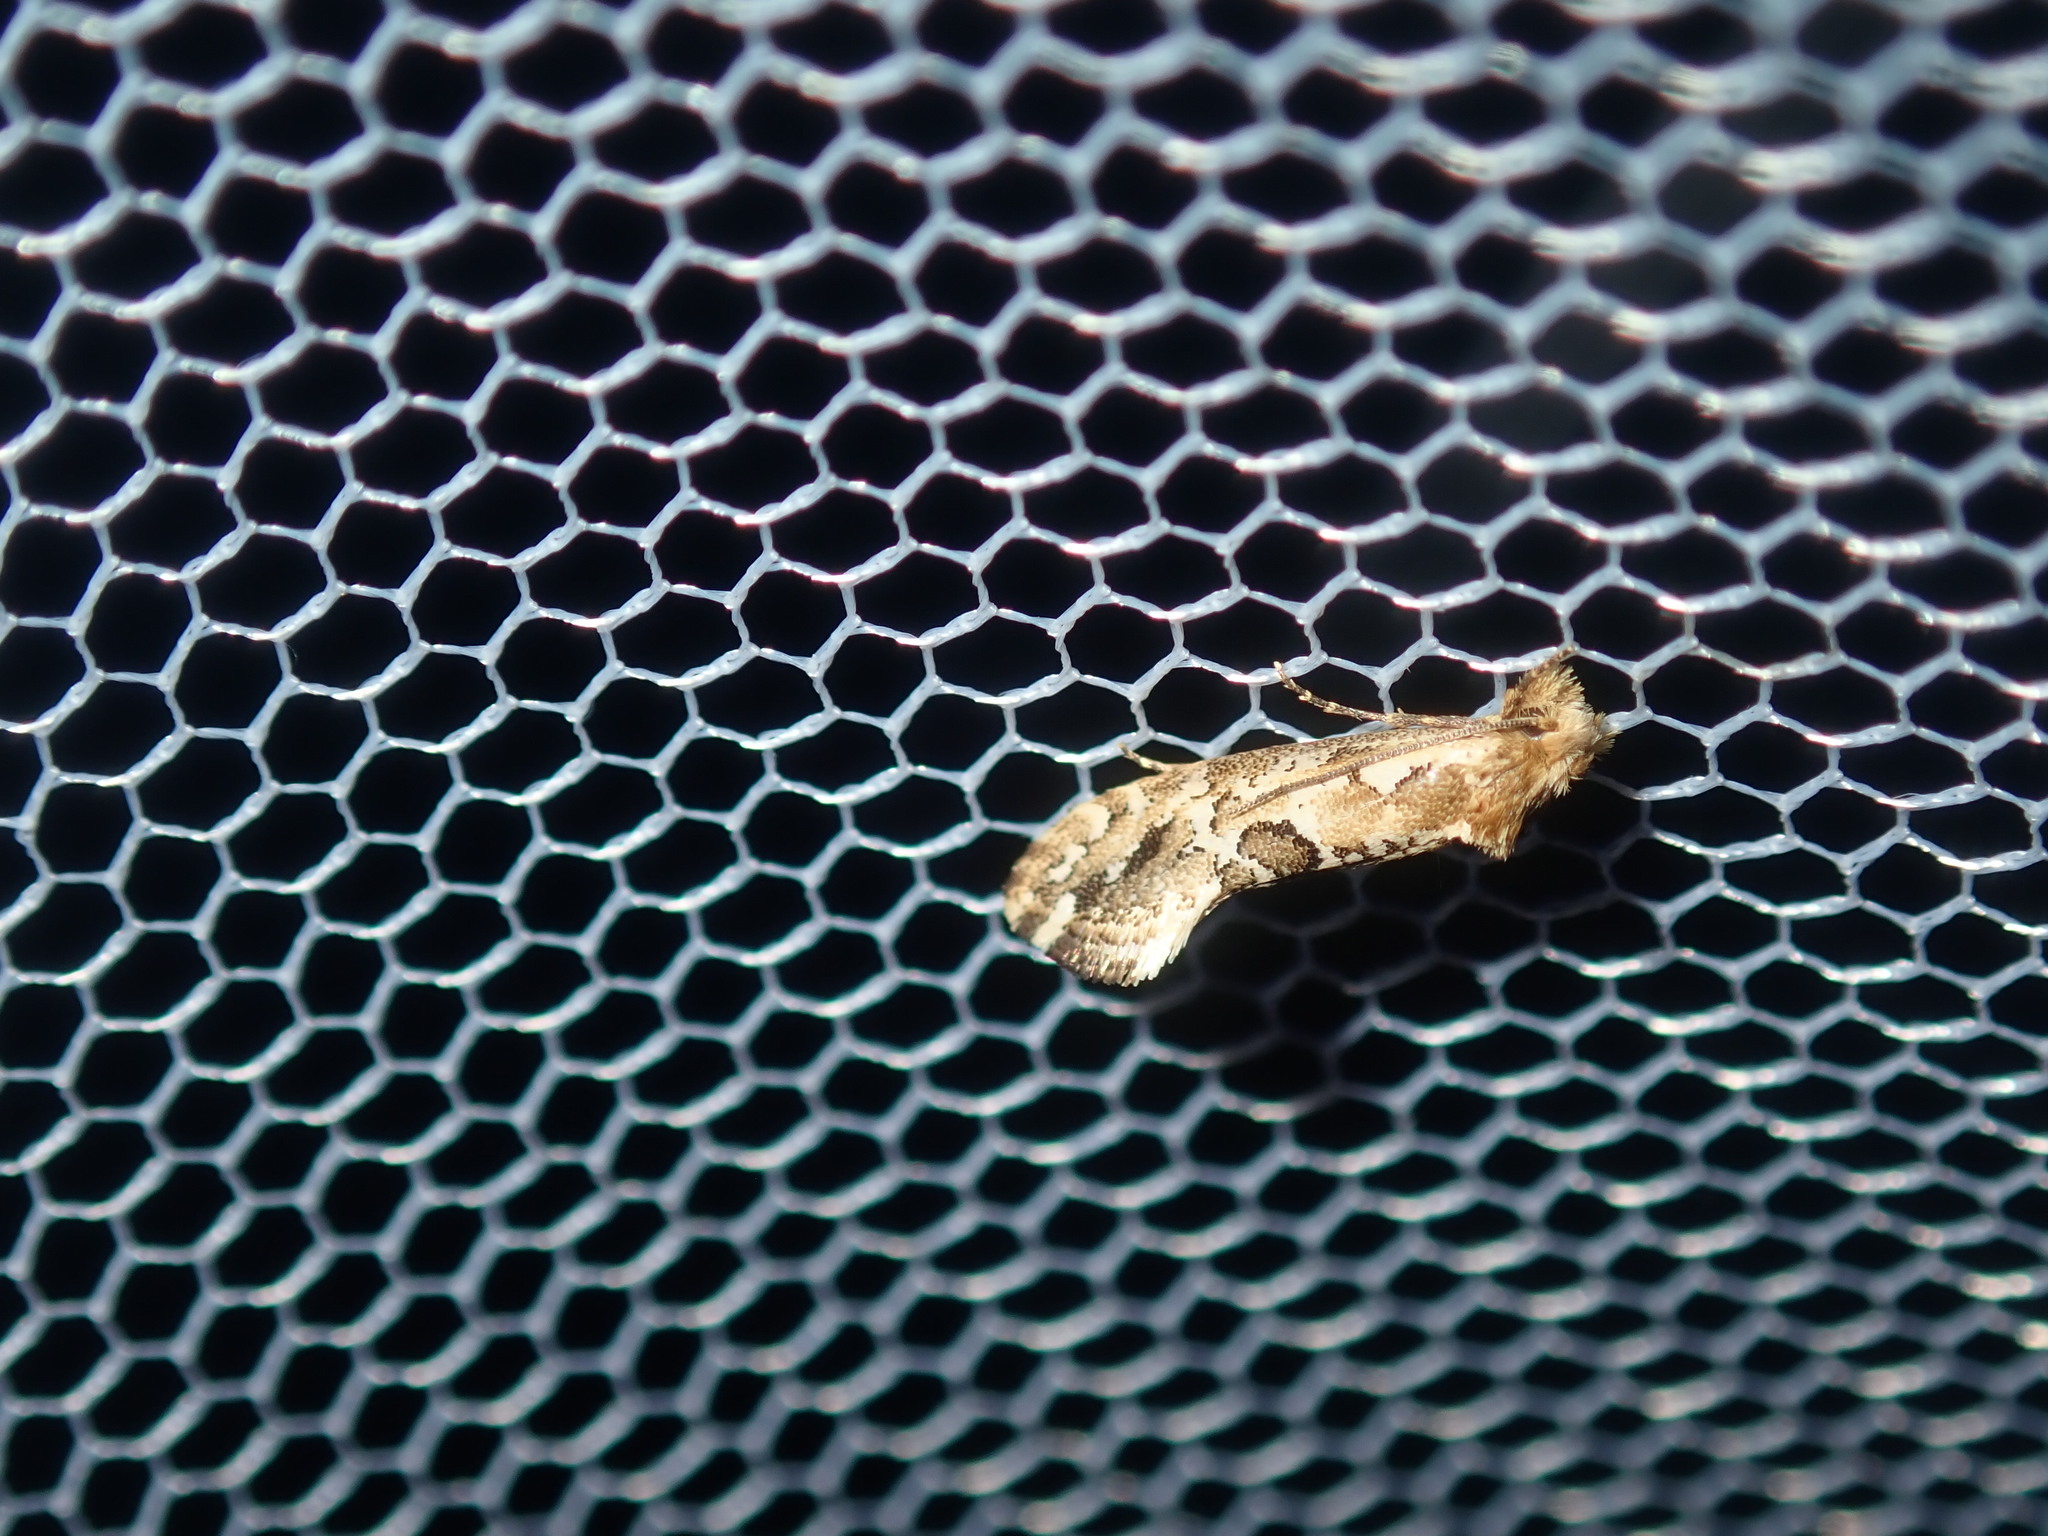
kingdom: Animalia
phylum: Arthropoda
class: Insecta
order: Lepidoptera
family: Tineidae
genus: Moerarchis
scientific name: Moerarchis inconcisella
